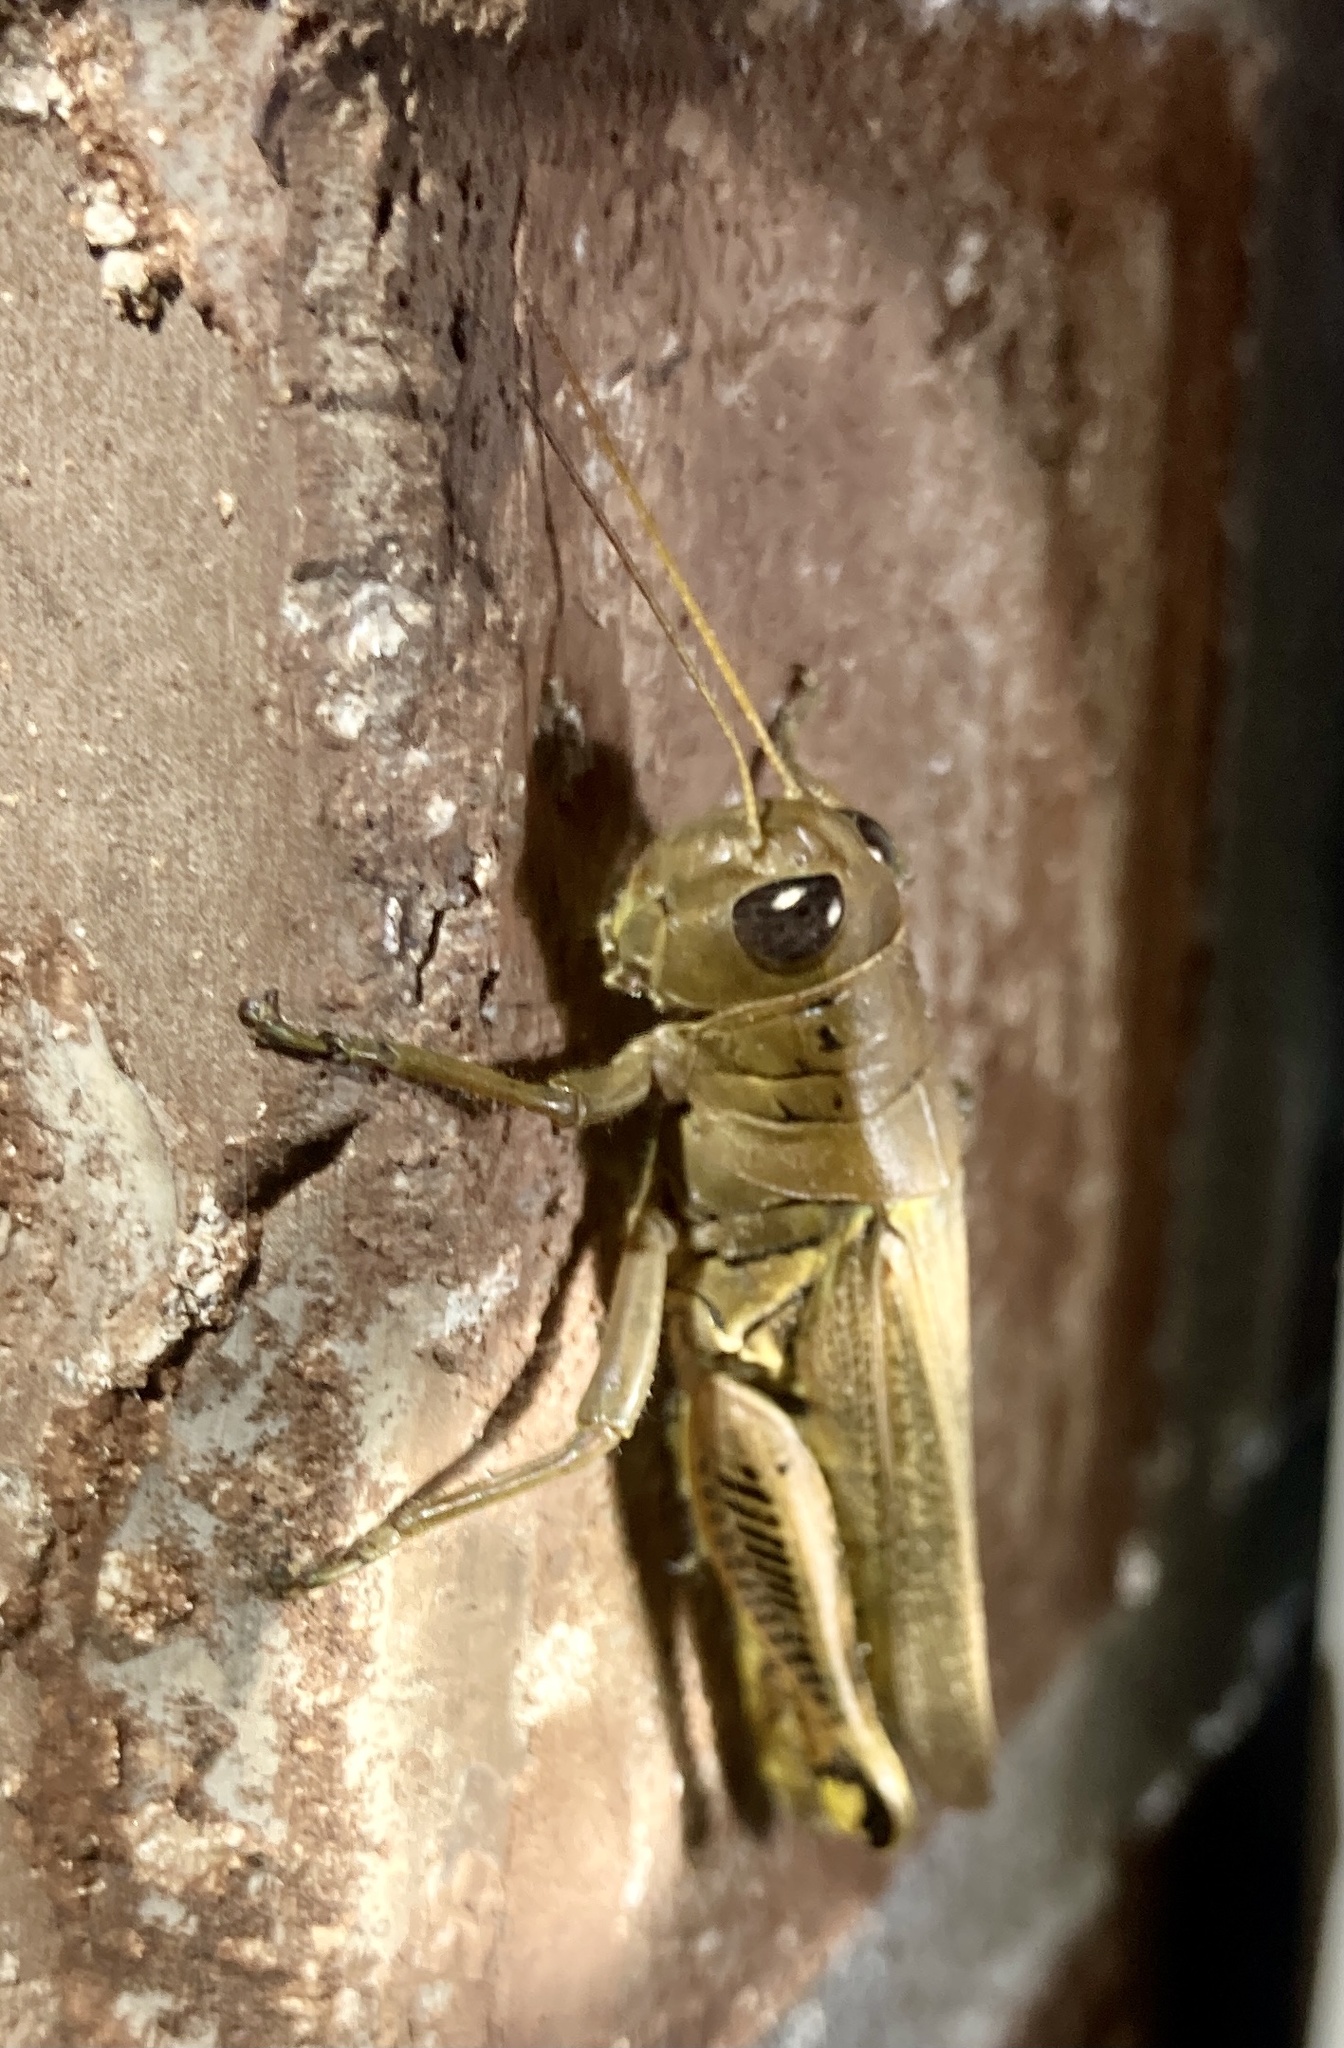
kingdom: Animalia
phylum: Arthropoda
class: Insecta
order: Orthoptera
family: Acrididae
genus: Melanoplus
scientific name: Melanoplus differentialis
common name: Differential grasshopper
